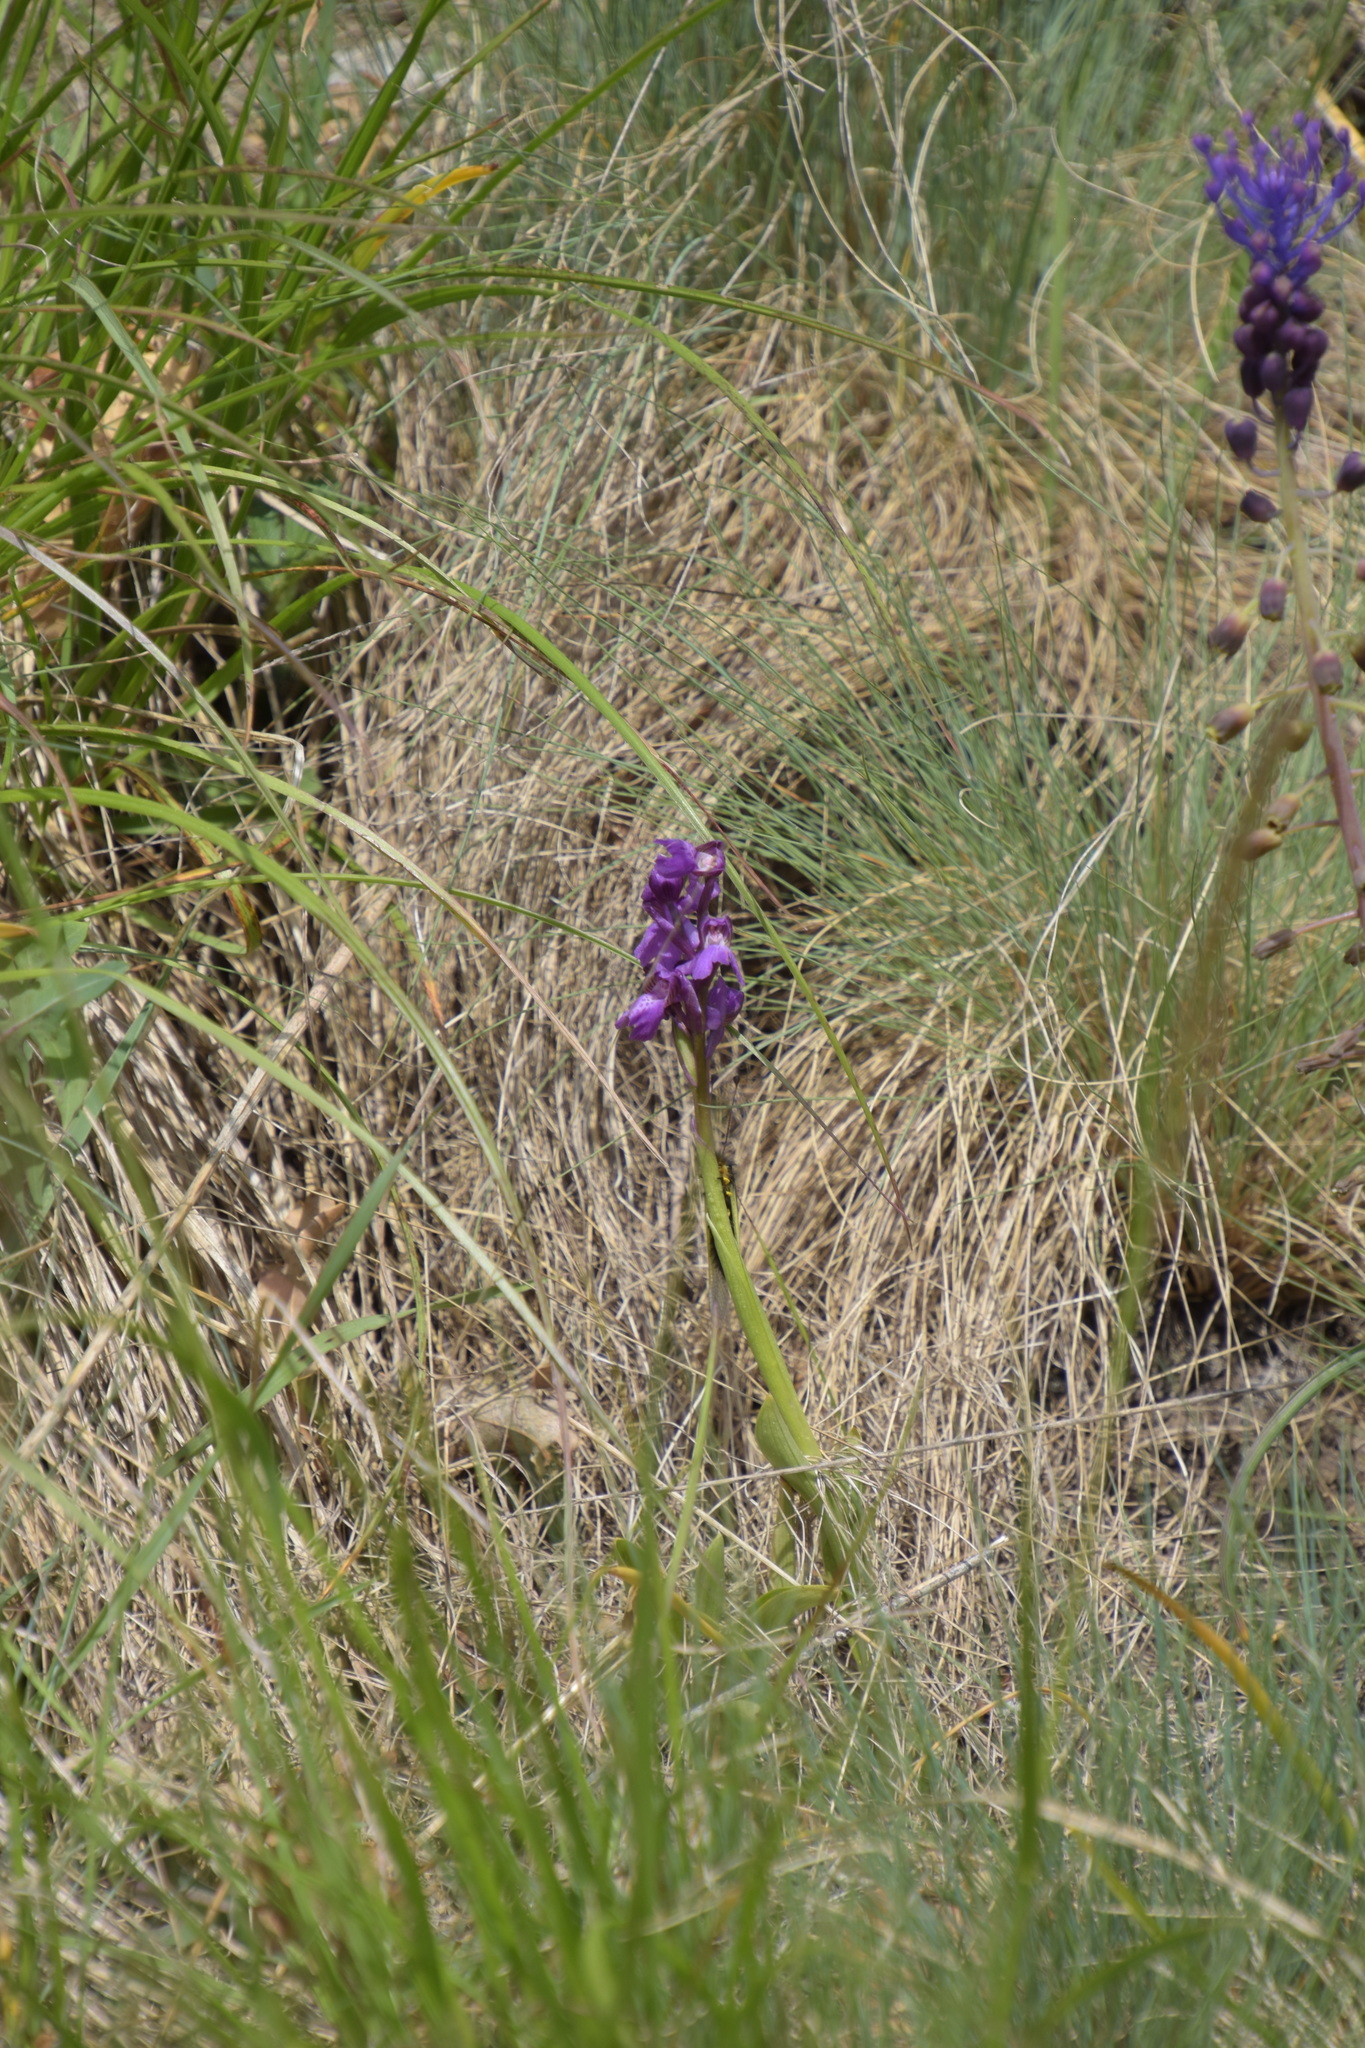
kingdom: Plantae
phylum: Tracheophyta
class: Liliopsida
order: Asparagales
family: Orchidaceae
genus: Anacamptis
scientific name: Anacamptis morio
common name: Green-winged orchid
